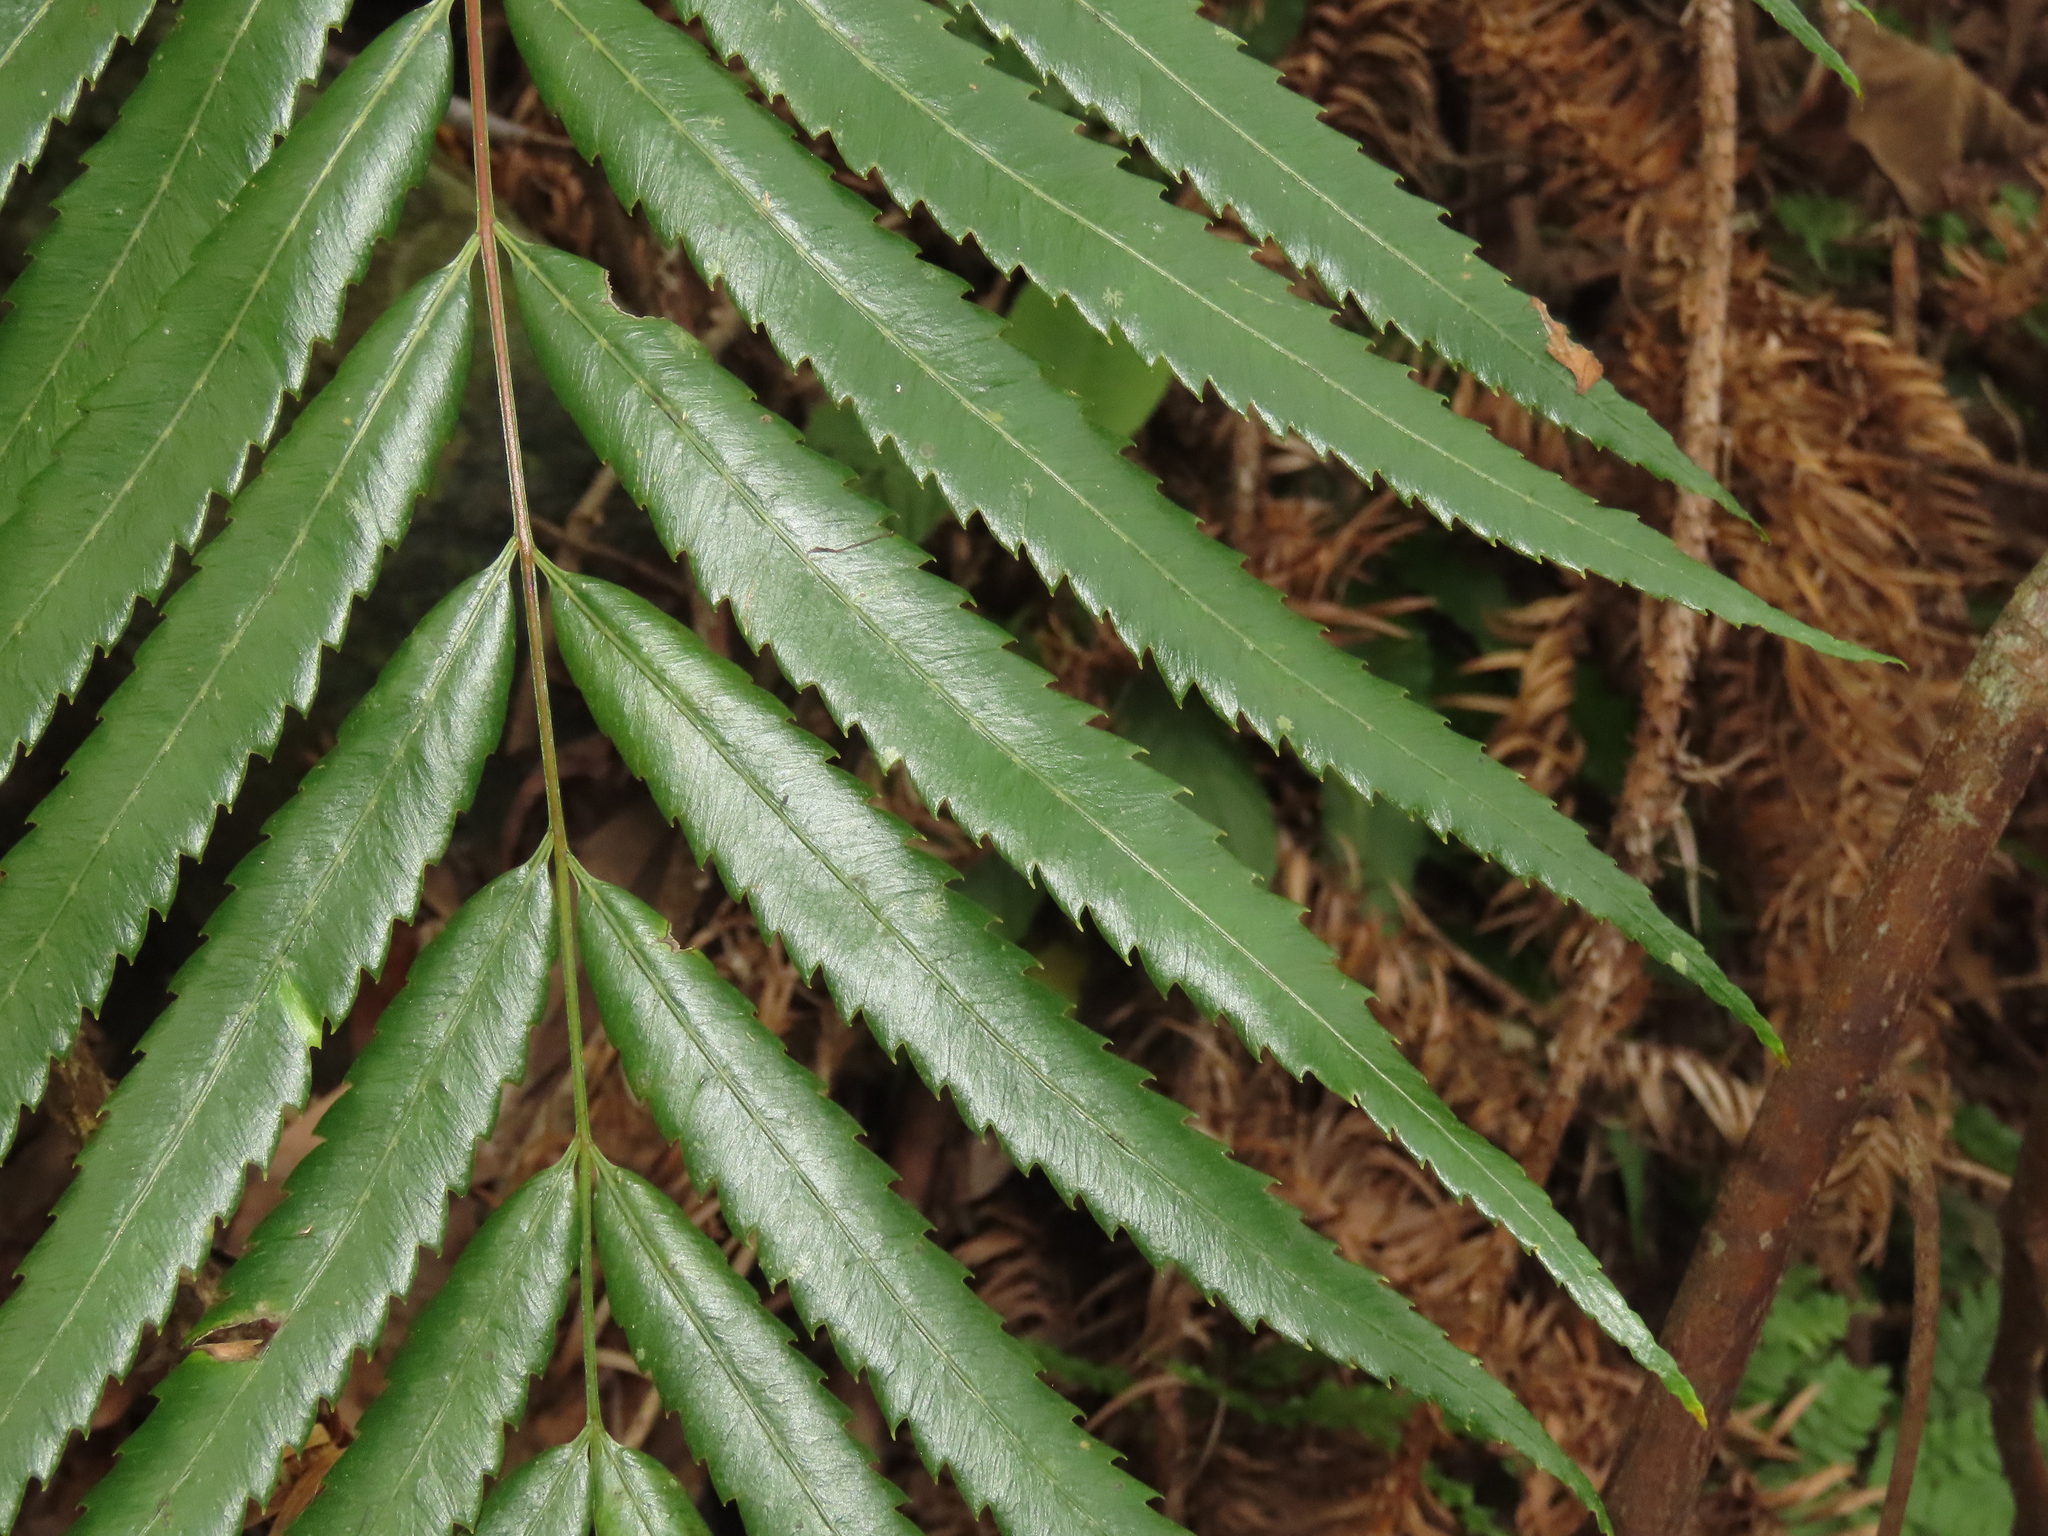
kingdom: Plantae
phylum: Tracheophyta
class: Polypodiopsida
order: Osmundales
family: Osmundaceae
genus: Plenasium
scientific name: Plenasium banksiifolium
